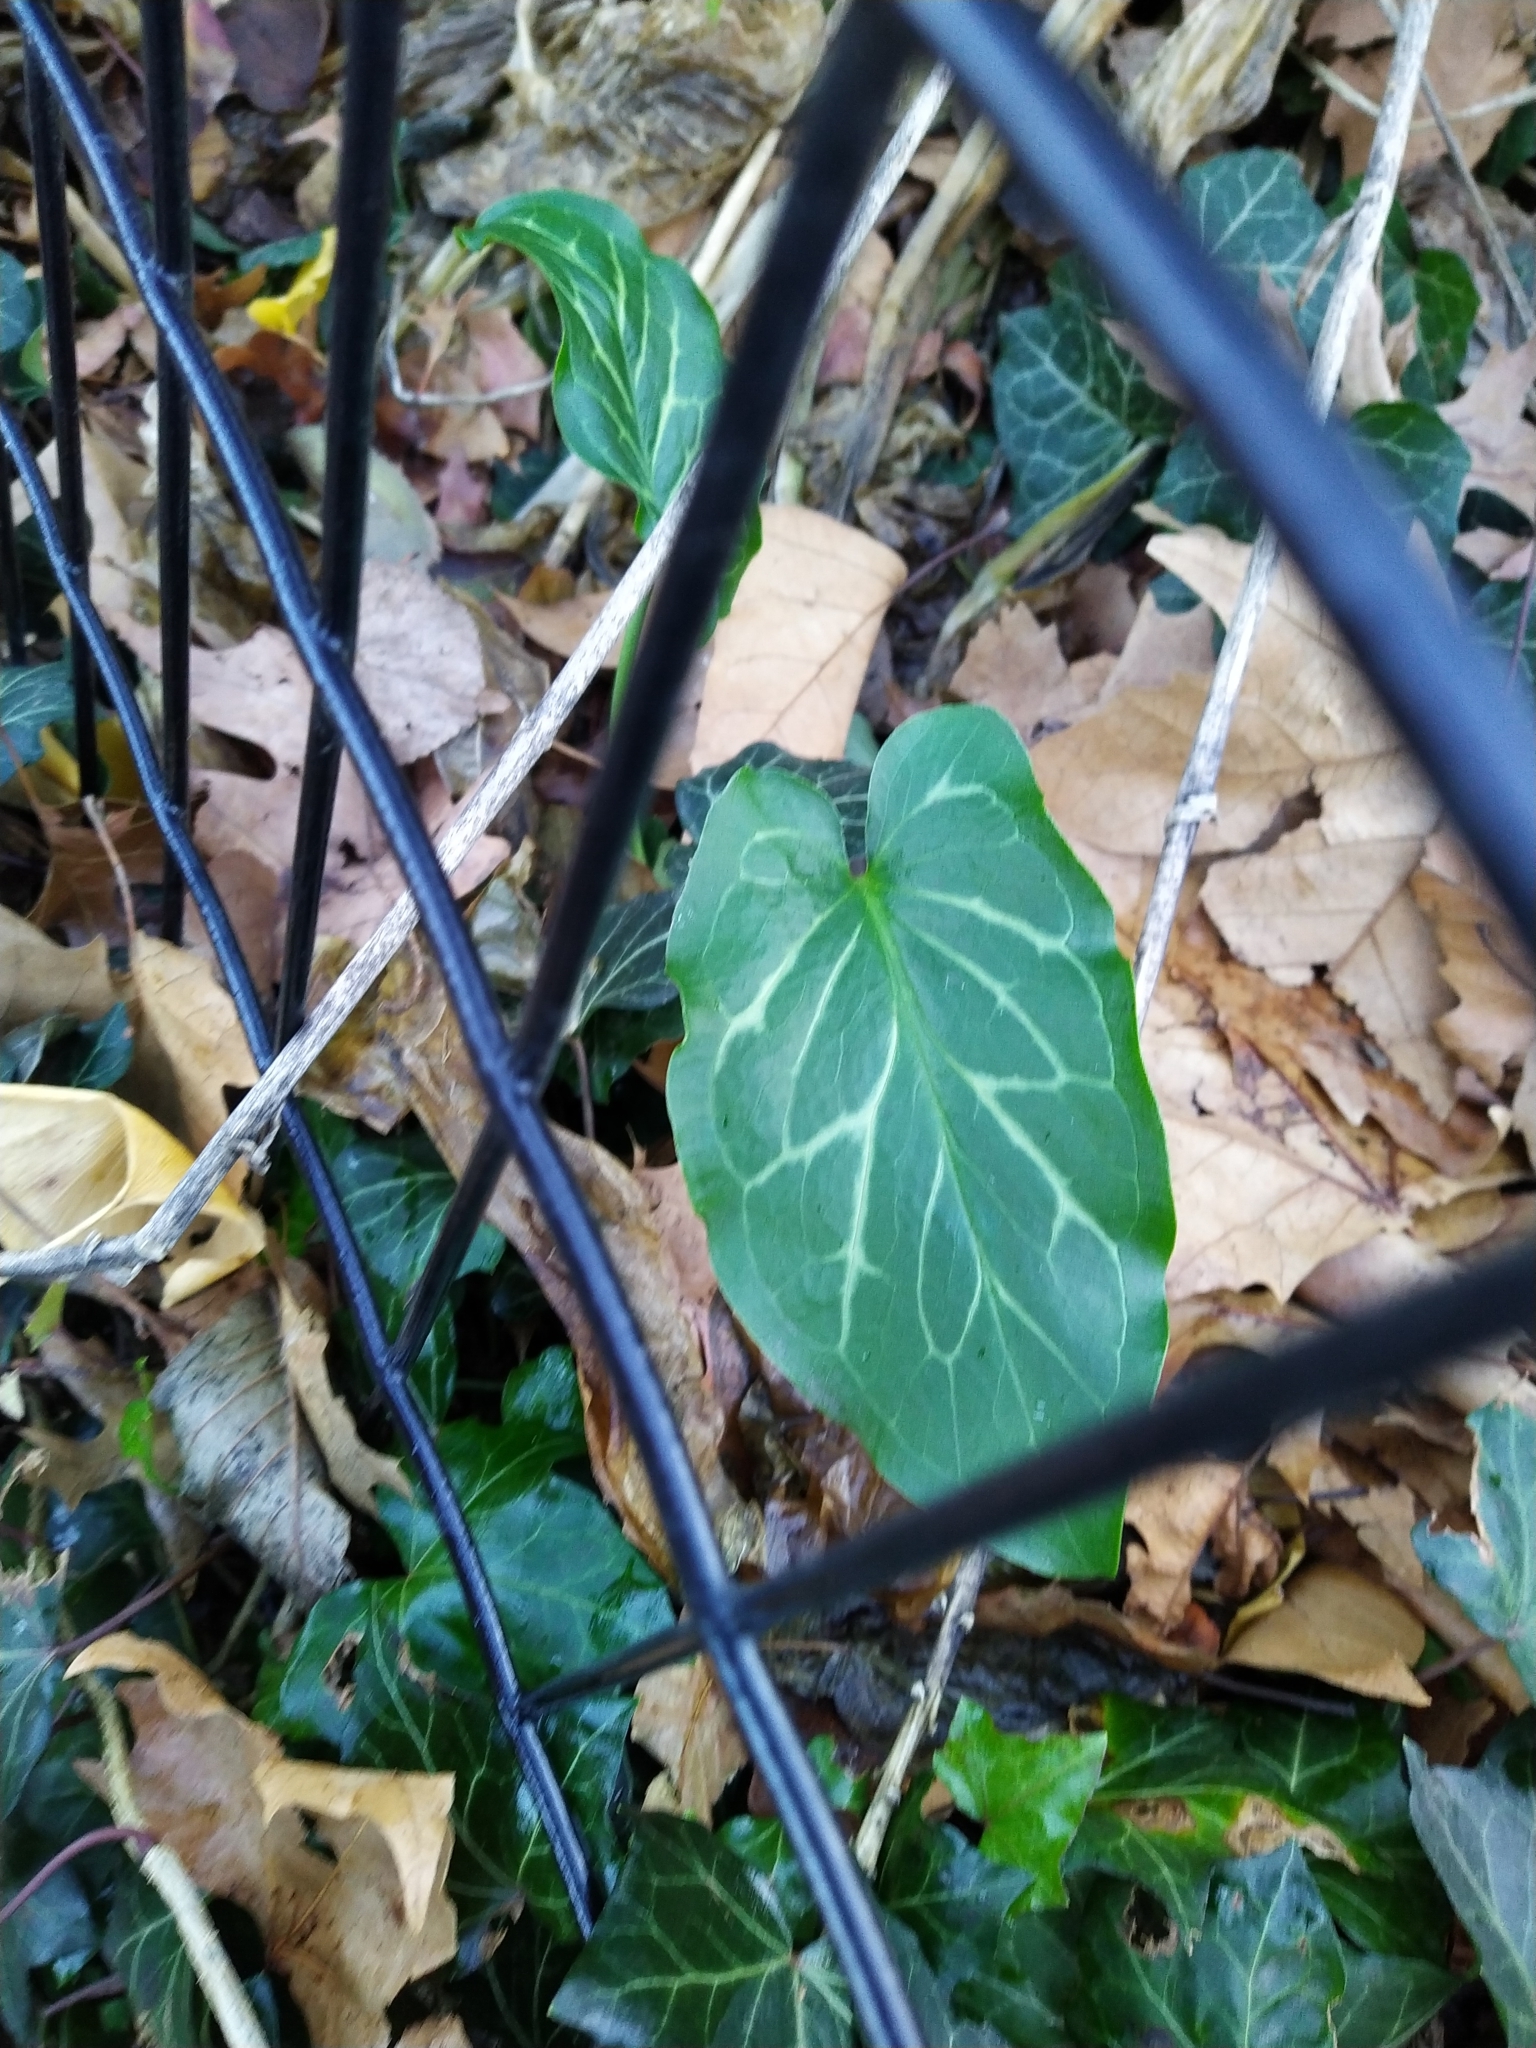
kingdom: Plantae
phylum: Tracheophyta
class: Liliopsida
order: Alismatales
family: Araceae
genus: Arum
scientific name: Arum italicum
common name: Italian lords-and-ladies
